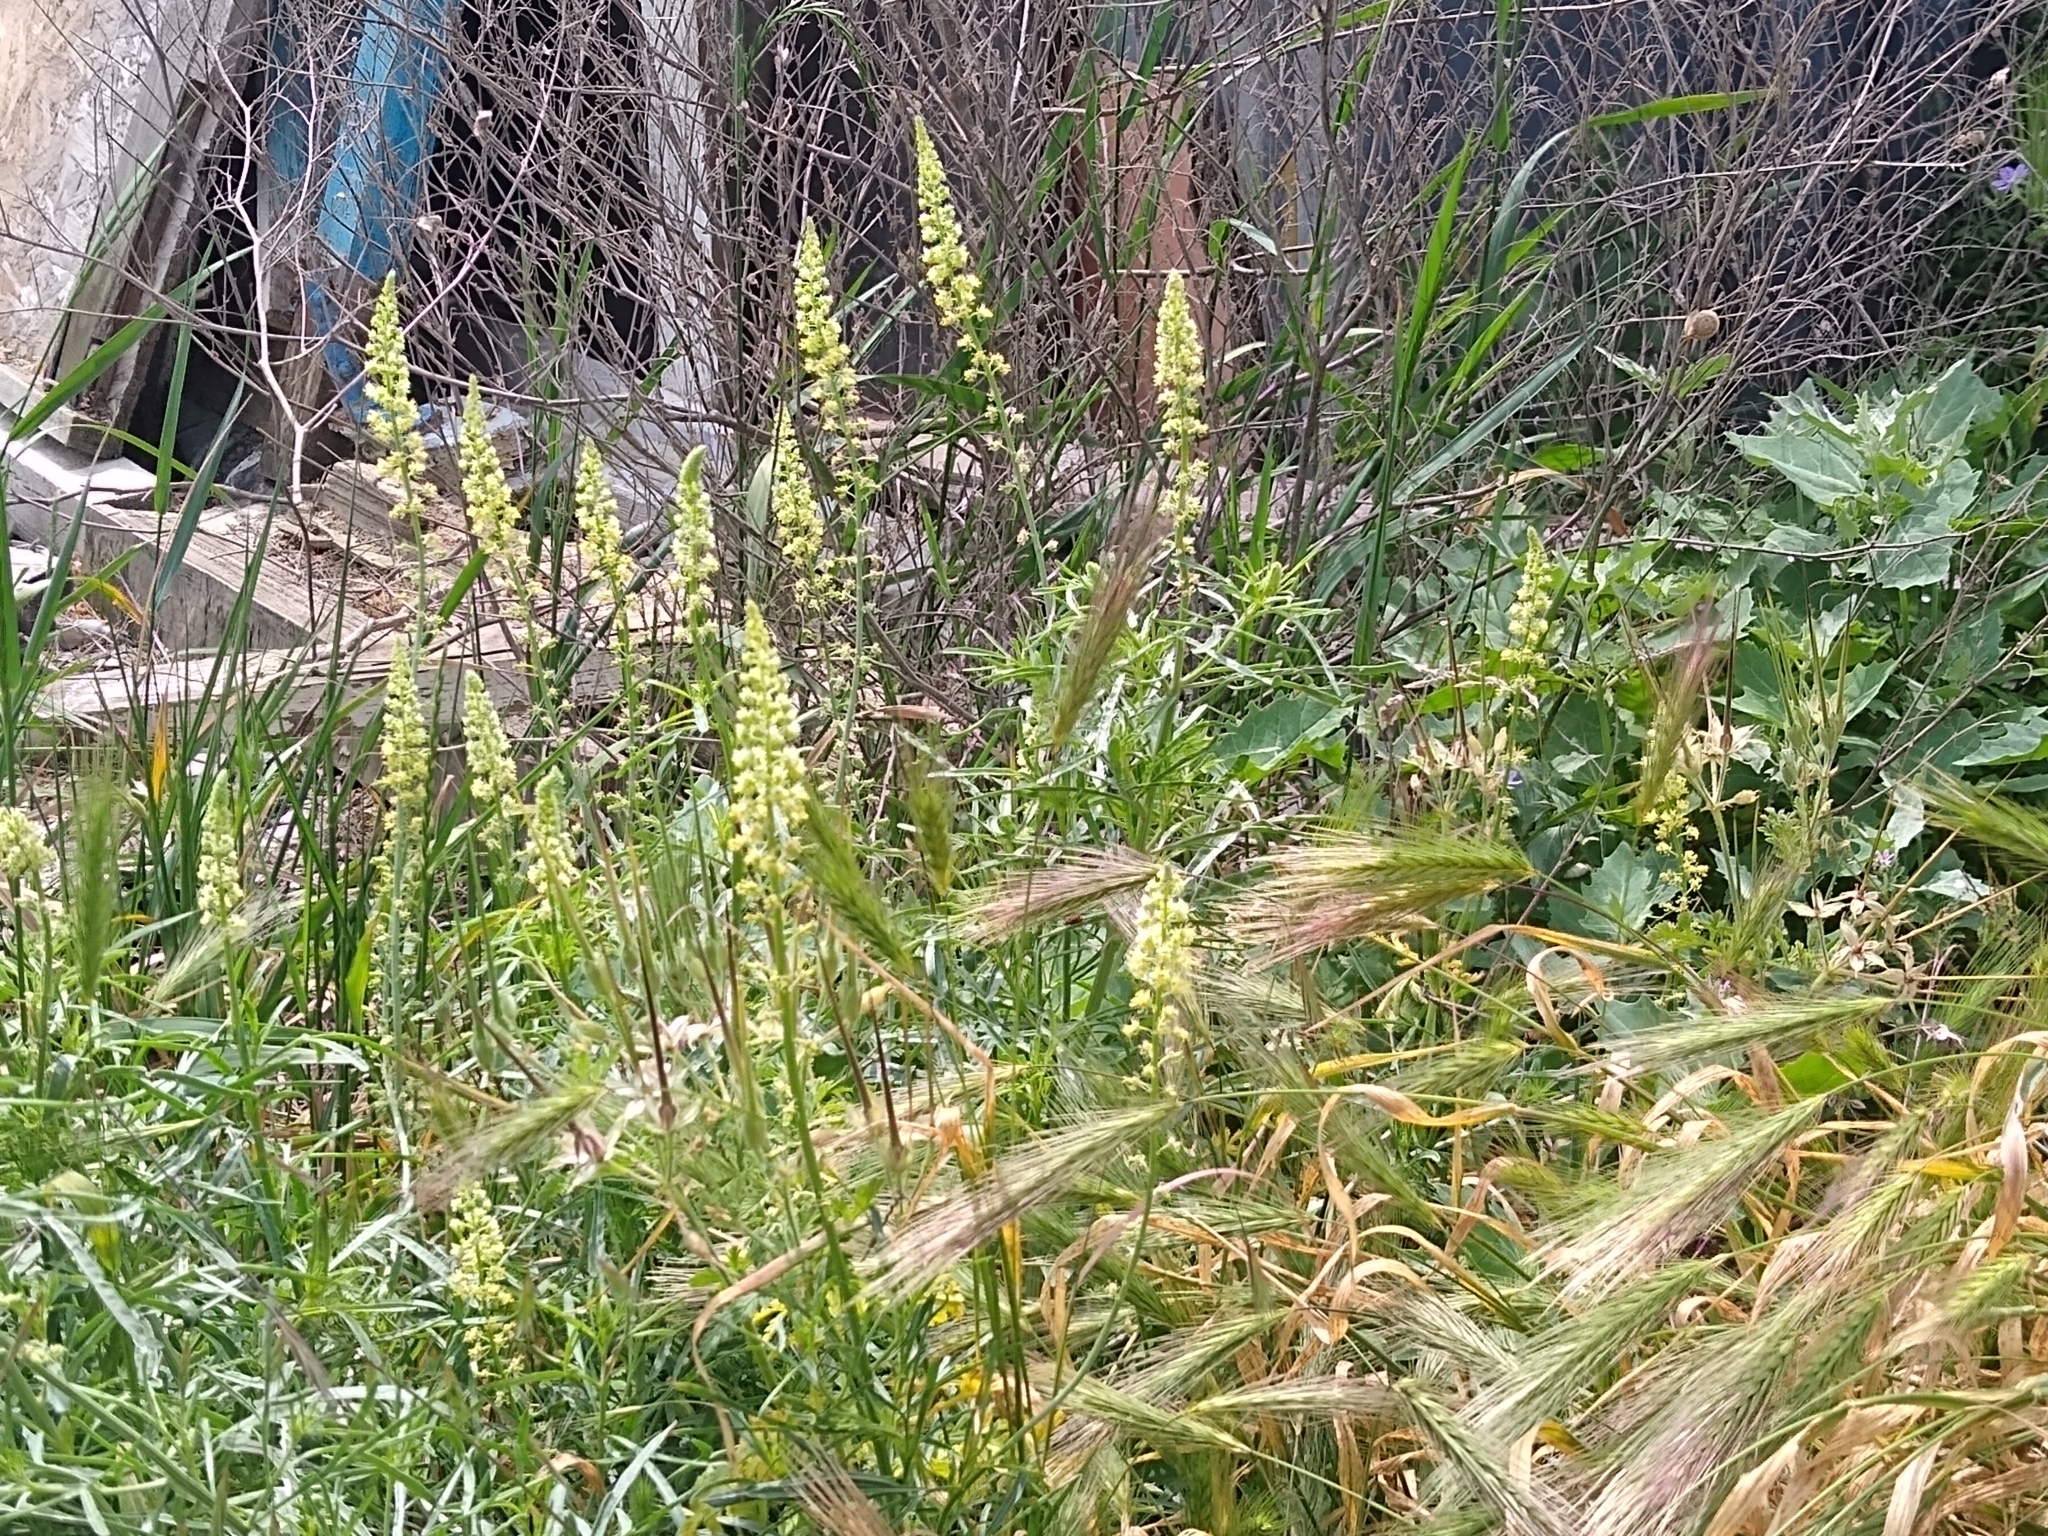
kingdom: Plantae
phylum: Tracheophyta
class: Magnoliopsida
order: Brassicales
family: Resedaceae
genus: Reseda
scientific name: Reseda lutea
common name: Wild mignonette
